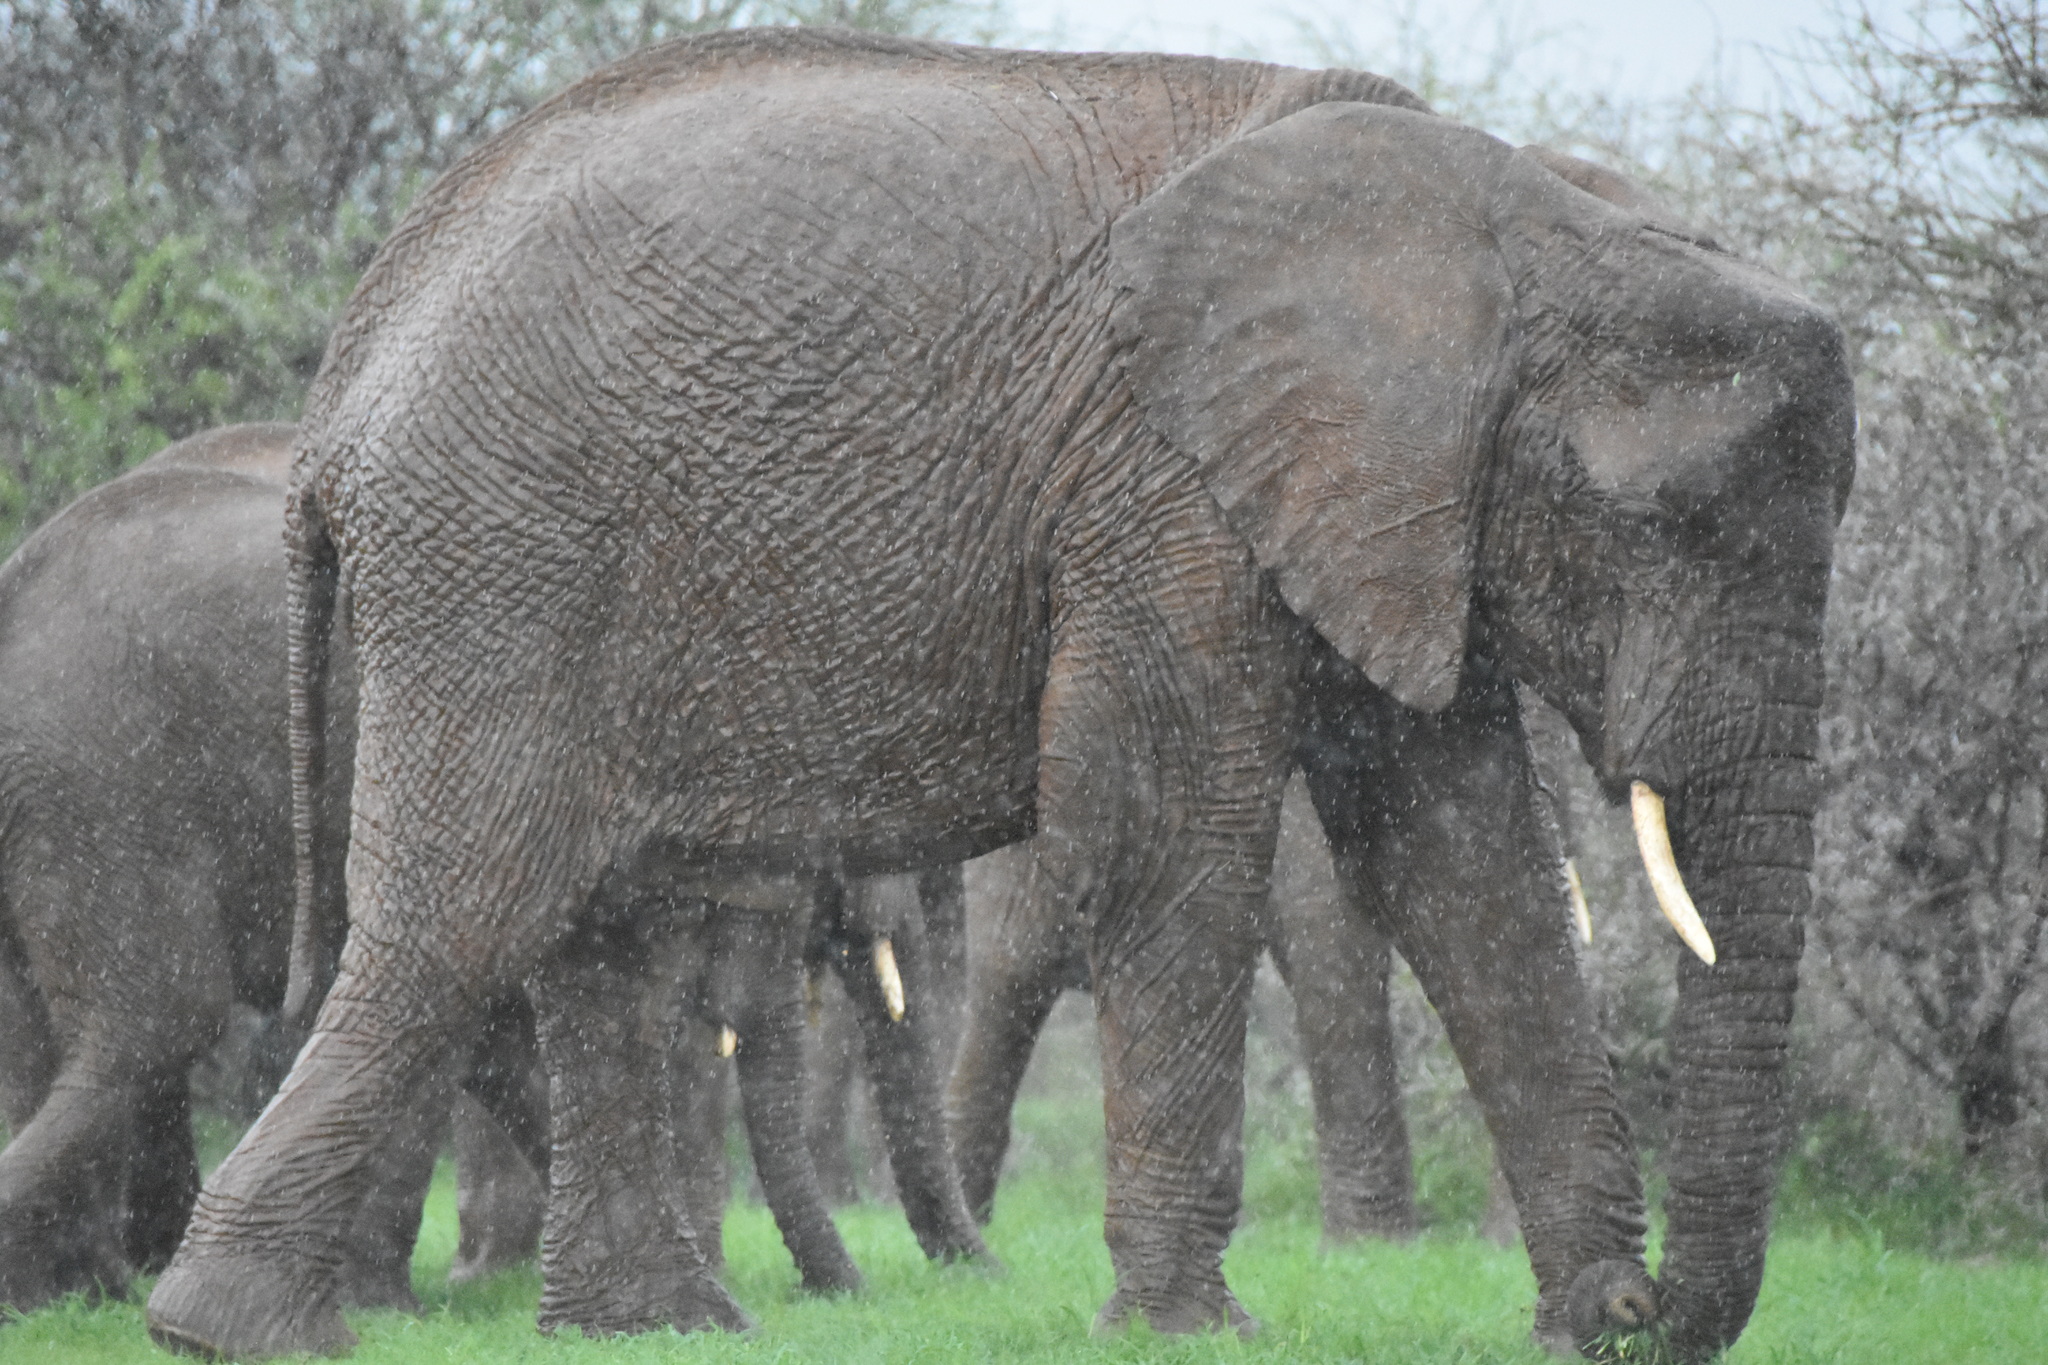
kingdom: Animalia
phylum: Chordata
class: Mammalia
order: Proboscidea
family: Elephantidae
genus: Loxodonta
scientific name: Loxodonta africana
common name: African elephant
